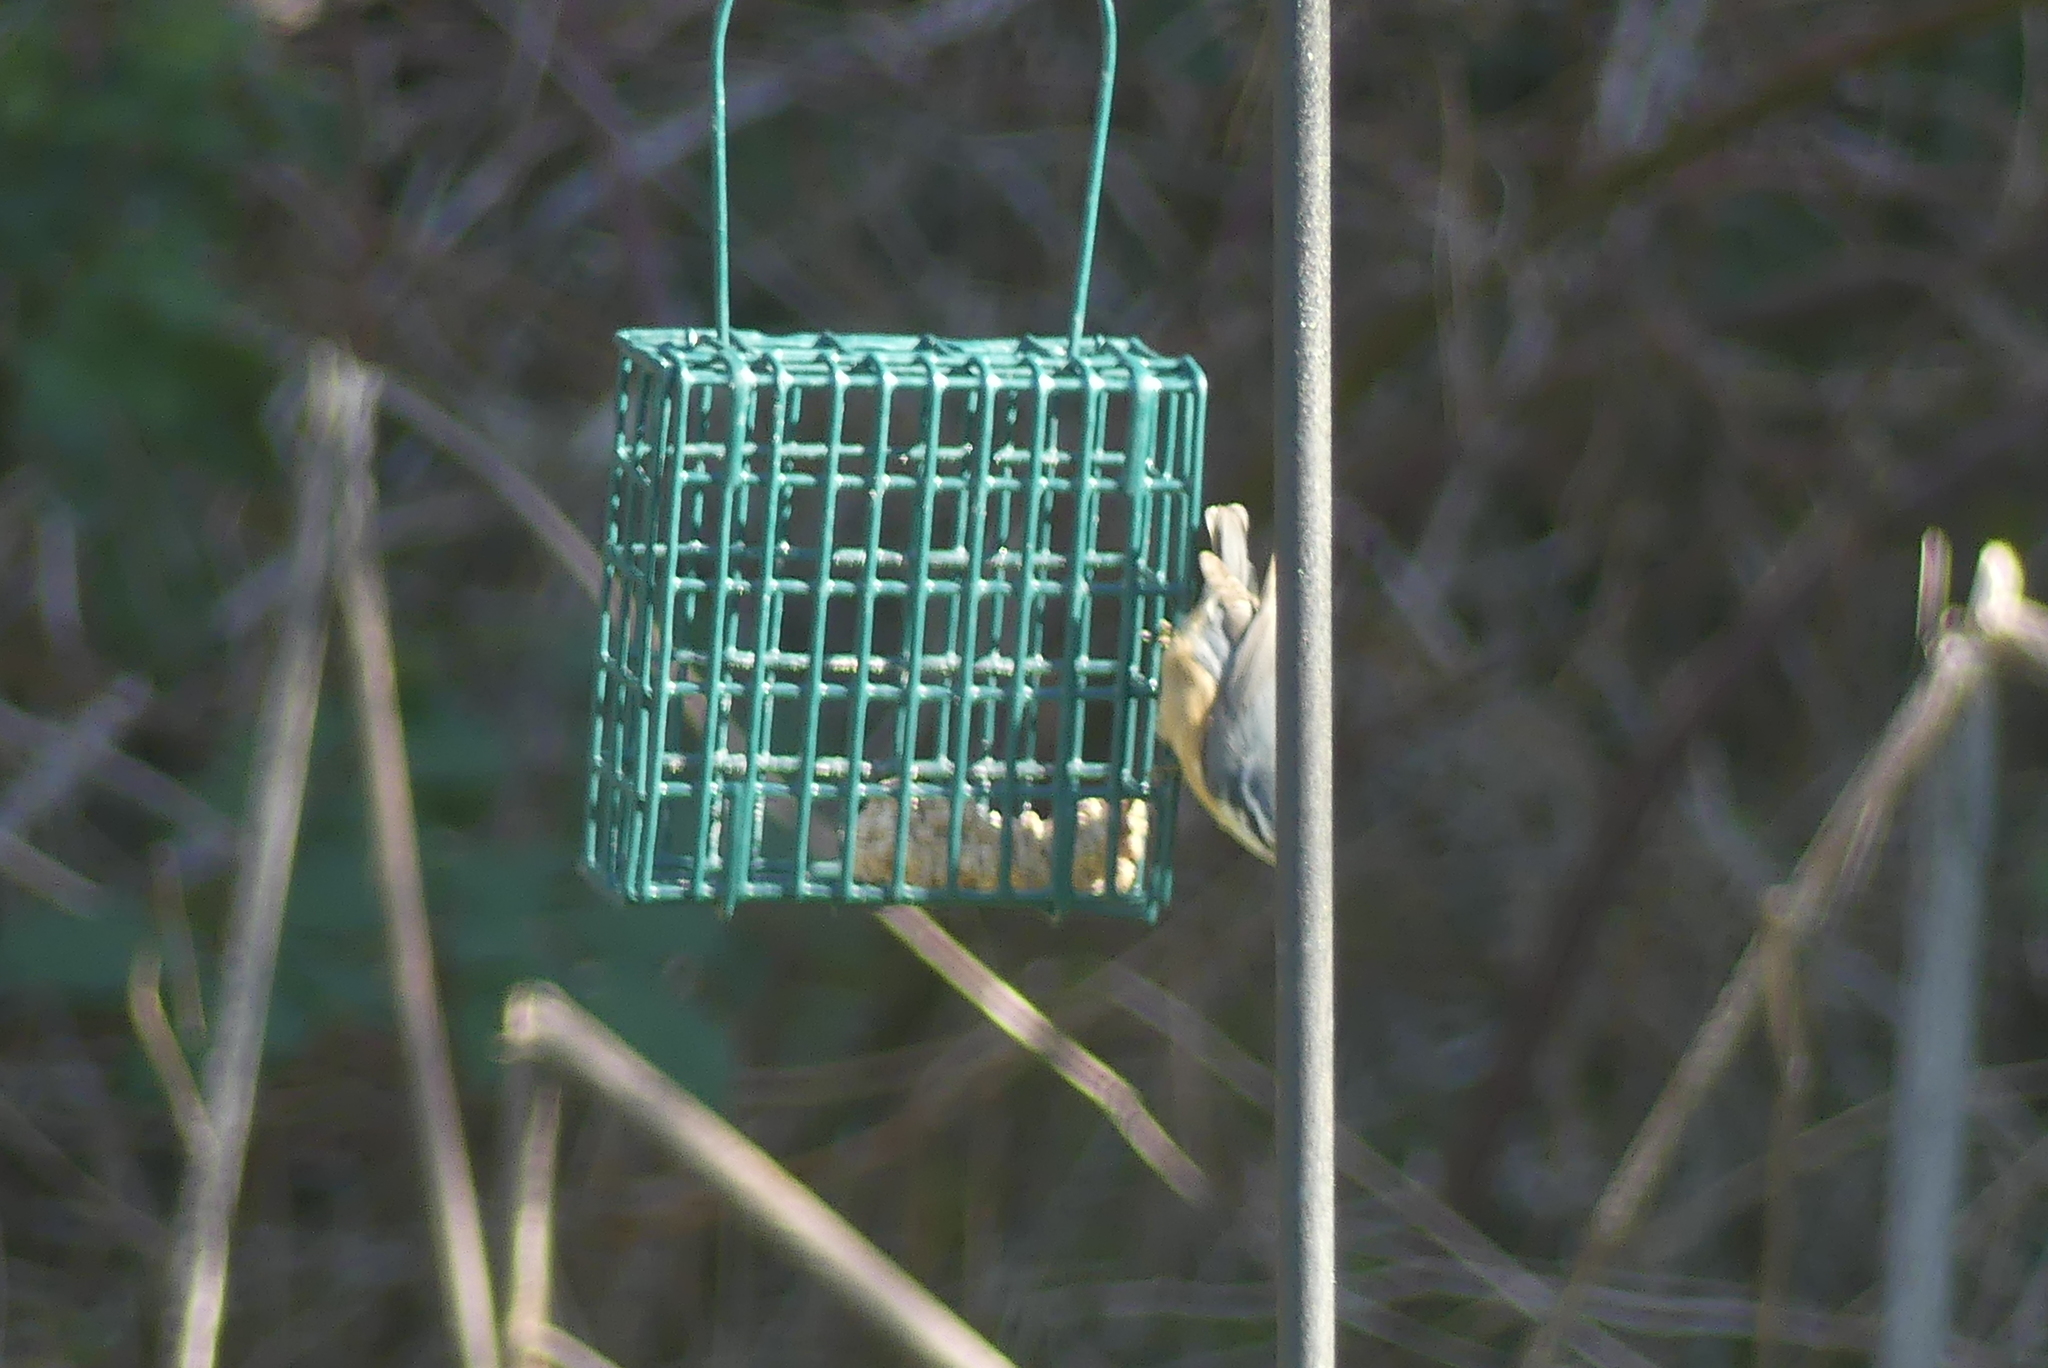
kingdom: Animalia
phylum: Chordata
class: Aves
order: Passeriformes
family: Sittidae
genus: Sitta
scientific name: Sitta canadensis
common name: Red-breasted nuthatch
